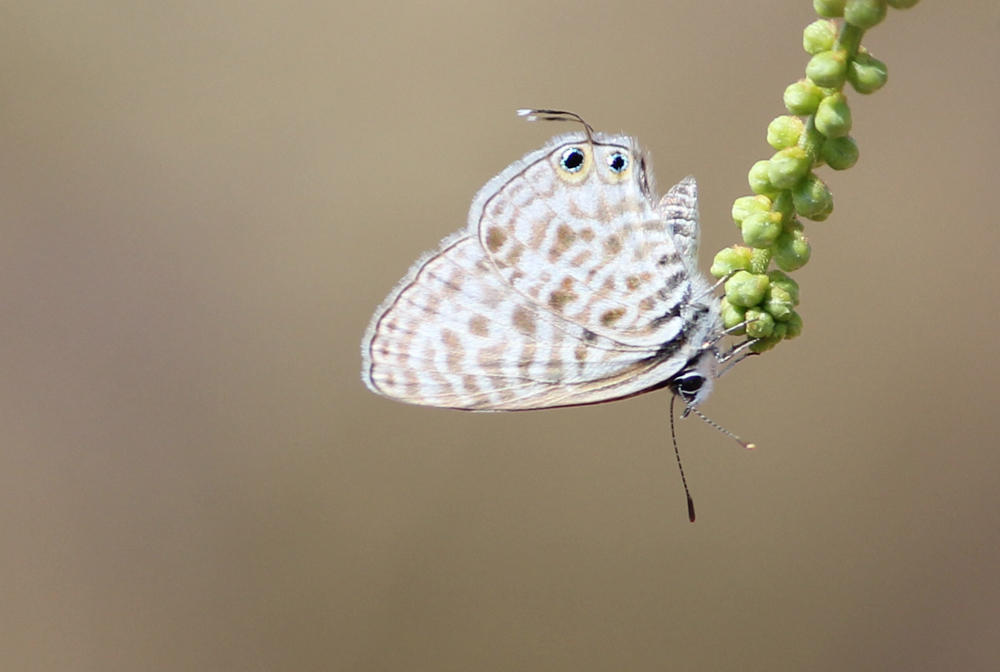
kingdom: Animalia
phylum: Arthropoda
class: Insecta
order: Lepidoptera
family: Lycaenidae
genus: Leptotes
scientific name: Leptotes
